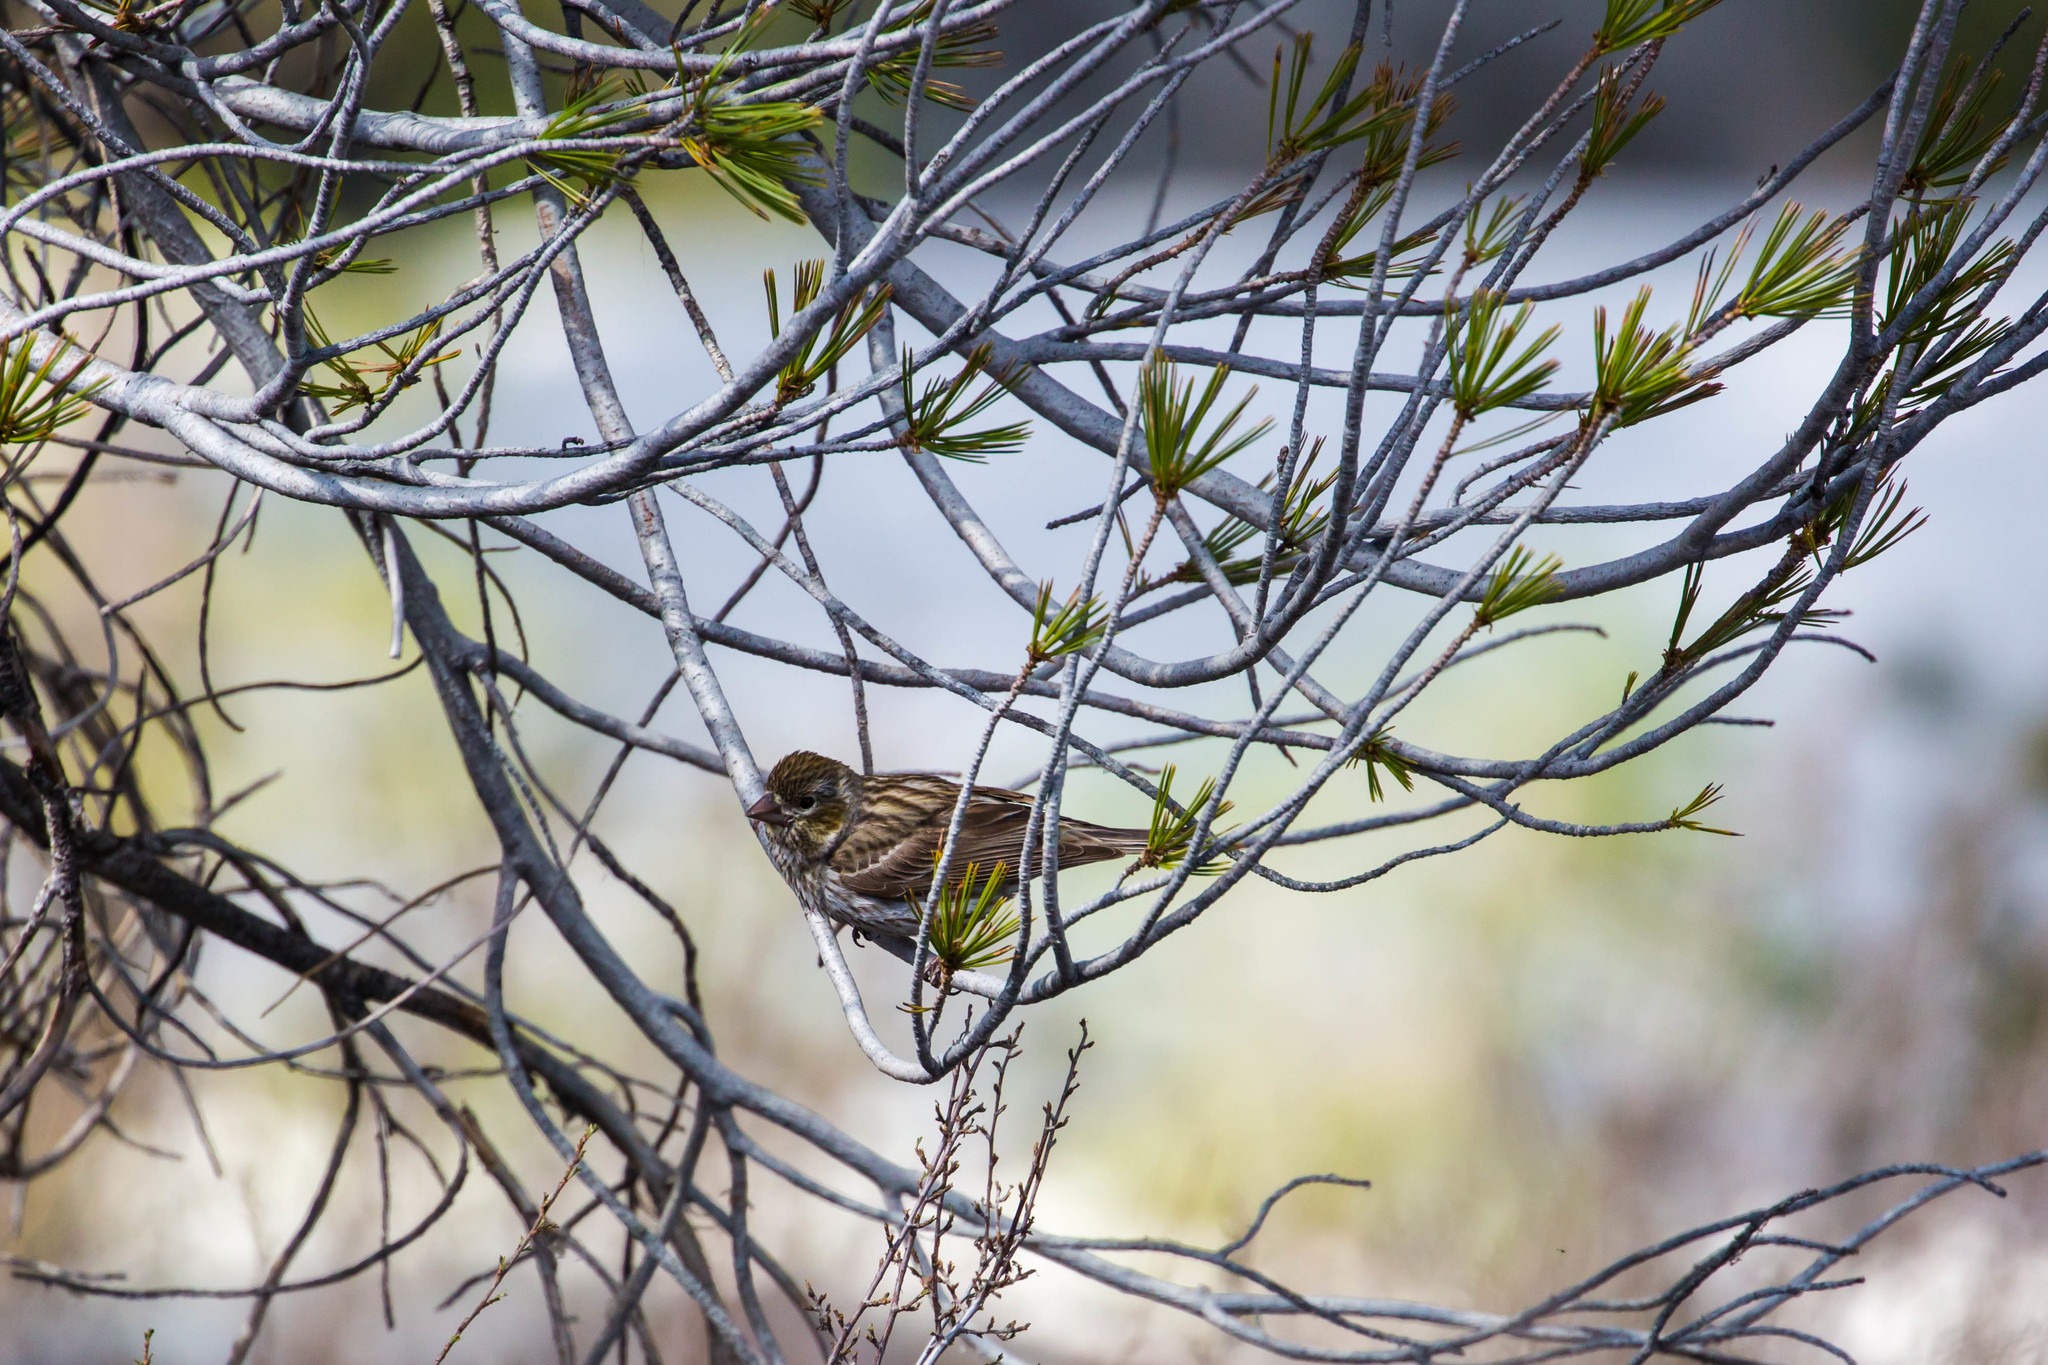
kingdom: Animalia
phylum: Chordata
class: Aves
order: Passeriformes
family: Fringillidae
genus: Haemorhous
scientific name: Haemorhous cassinii
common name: Cassin's finch
